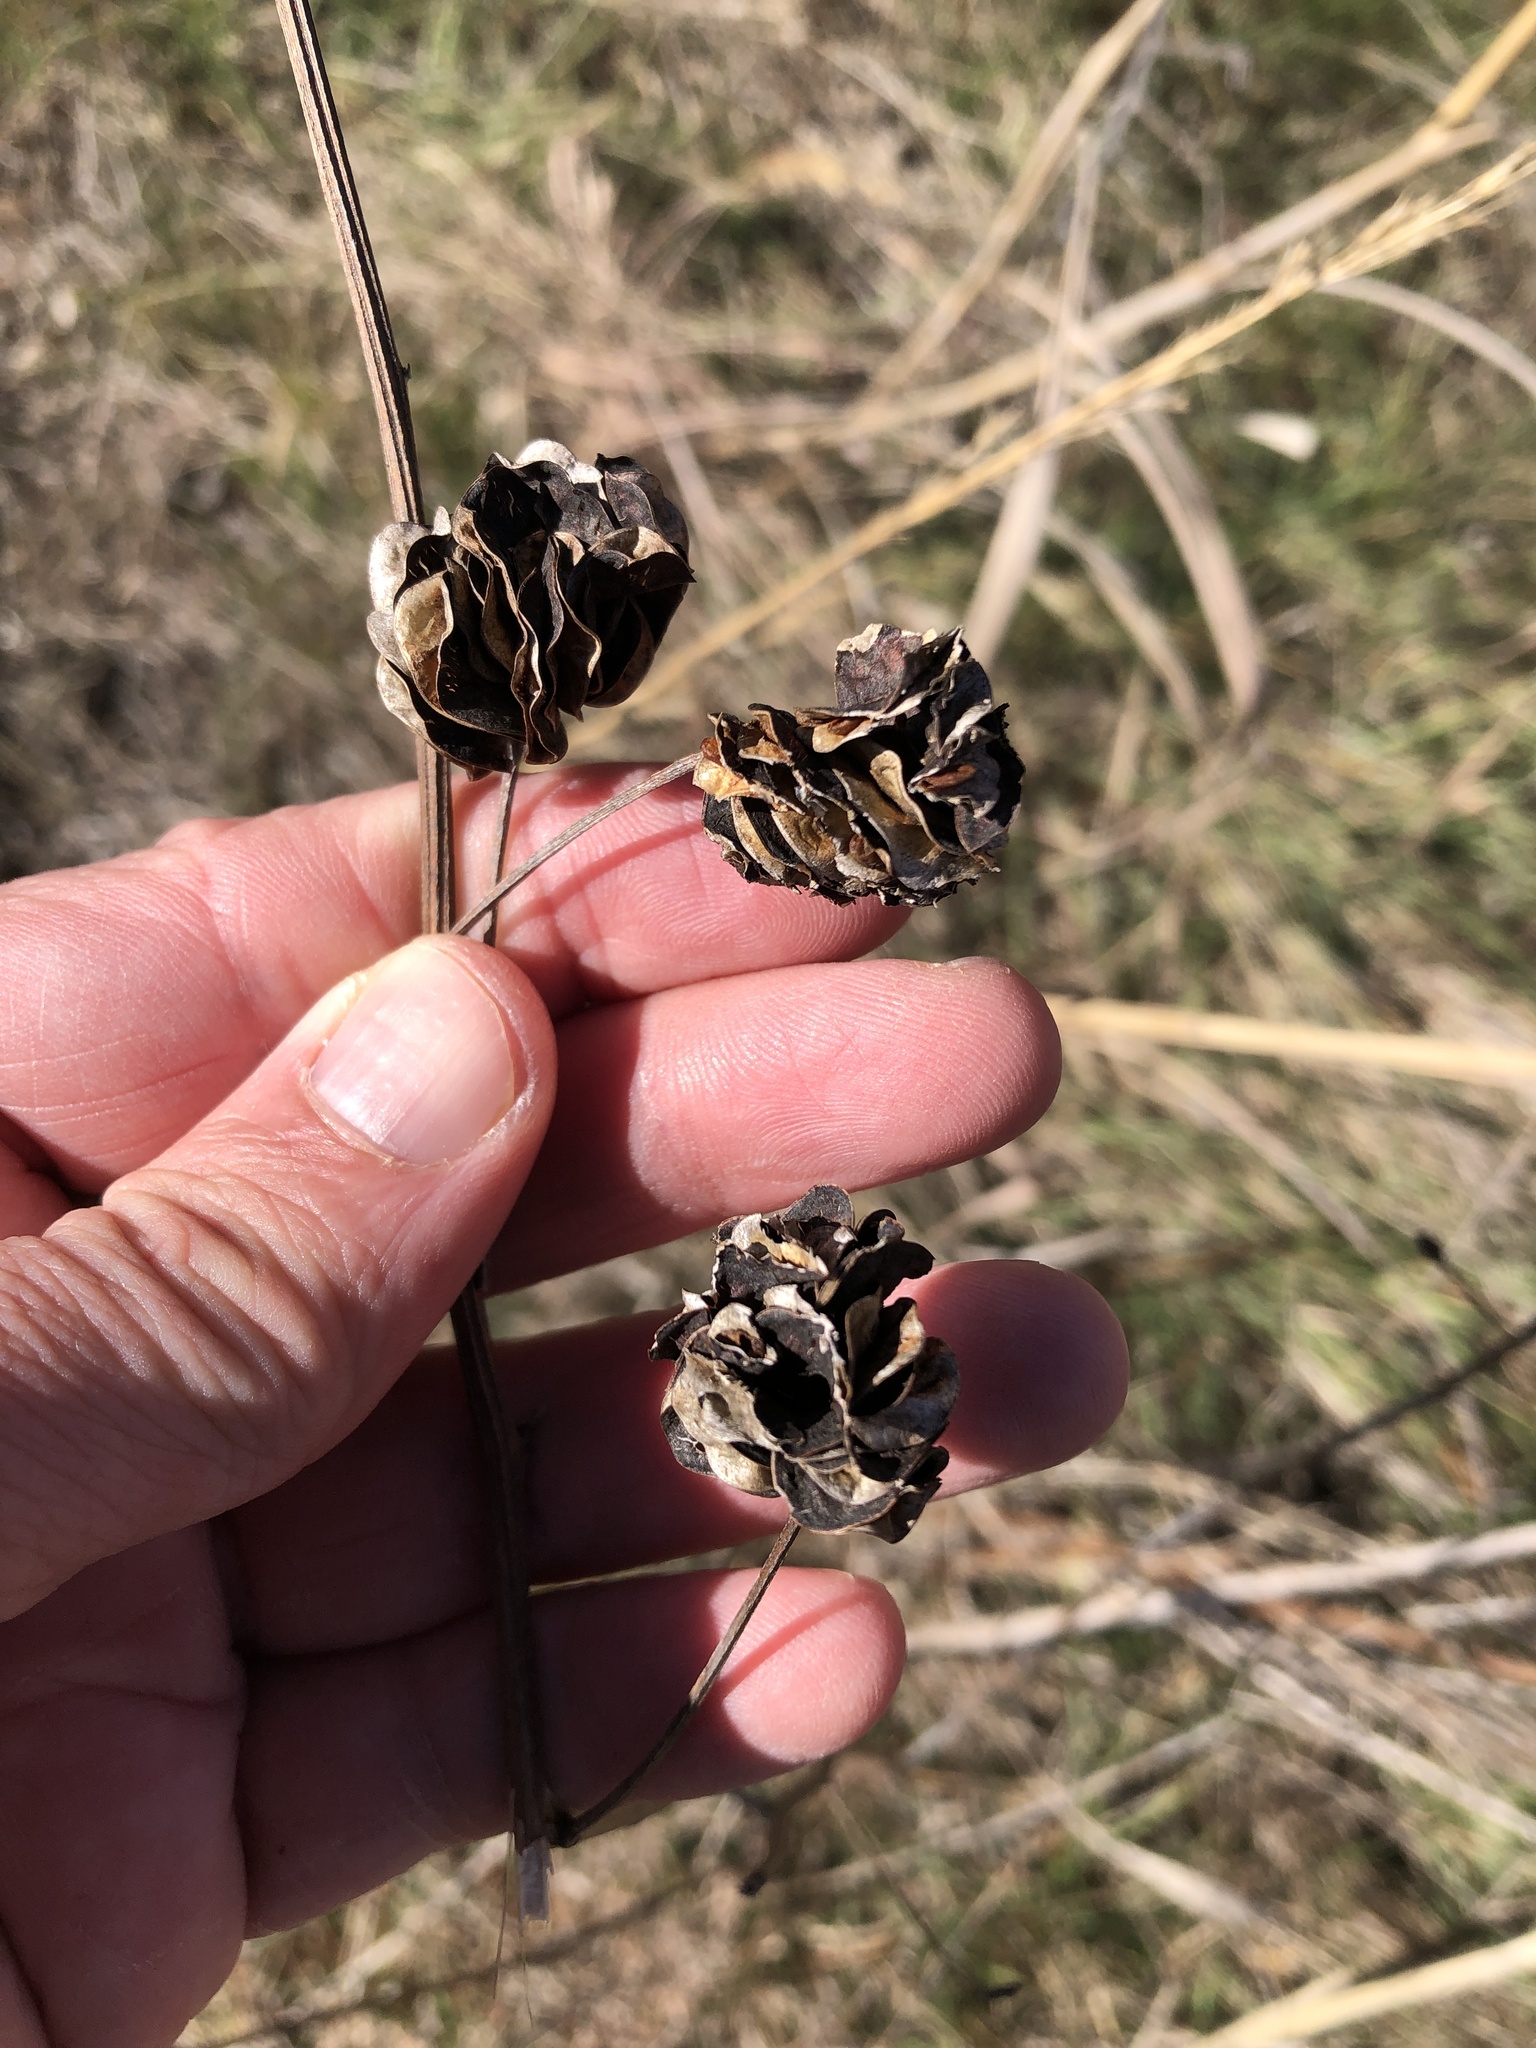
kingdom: Plantae
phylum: Tracheophyta
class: Magnoliopsida
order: Fabales
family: Fabaceae
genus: Desmanthus
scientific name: Desmanthus illinoensis
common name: Illinois bundle-flower
